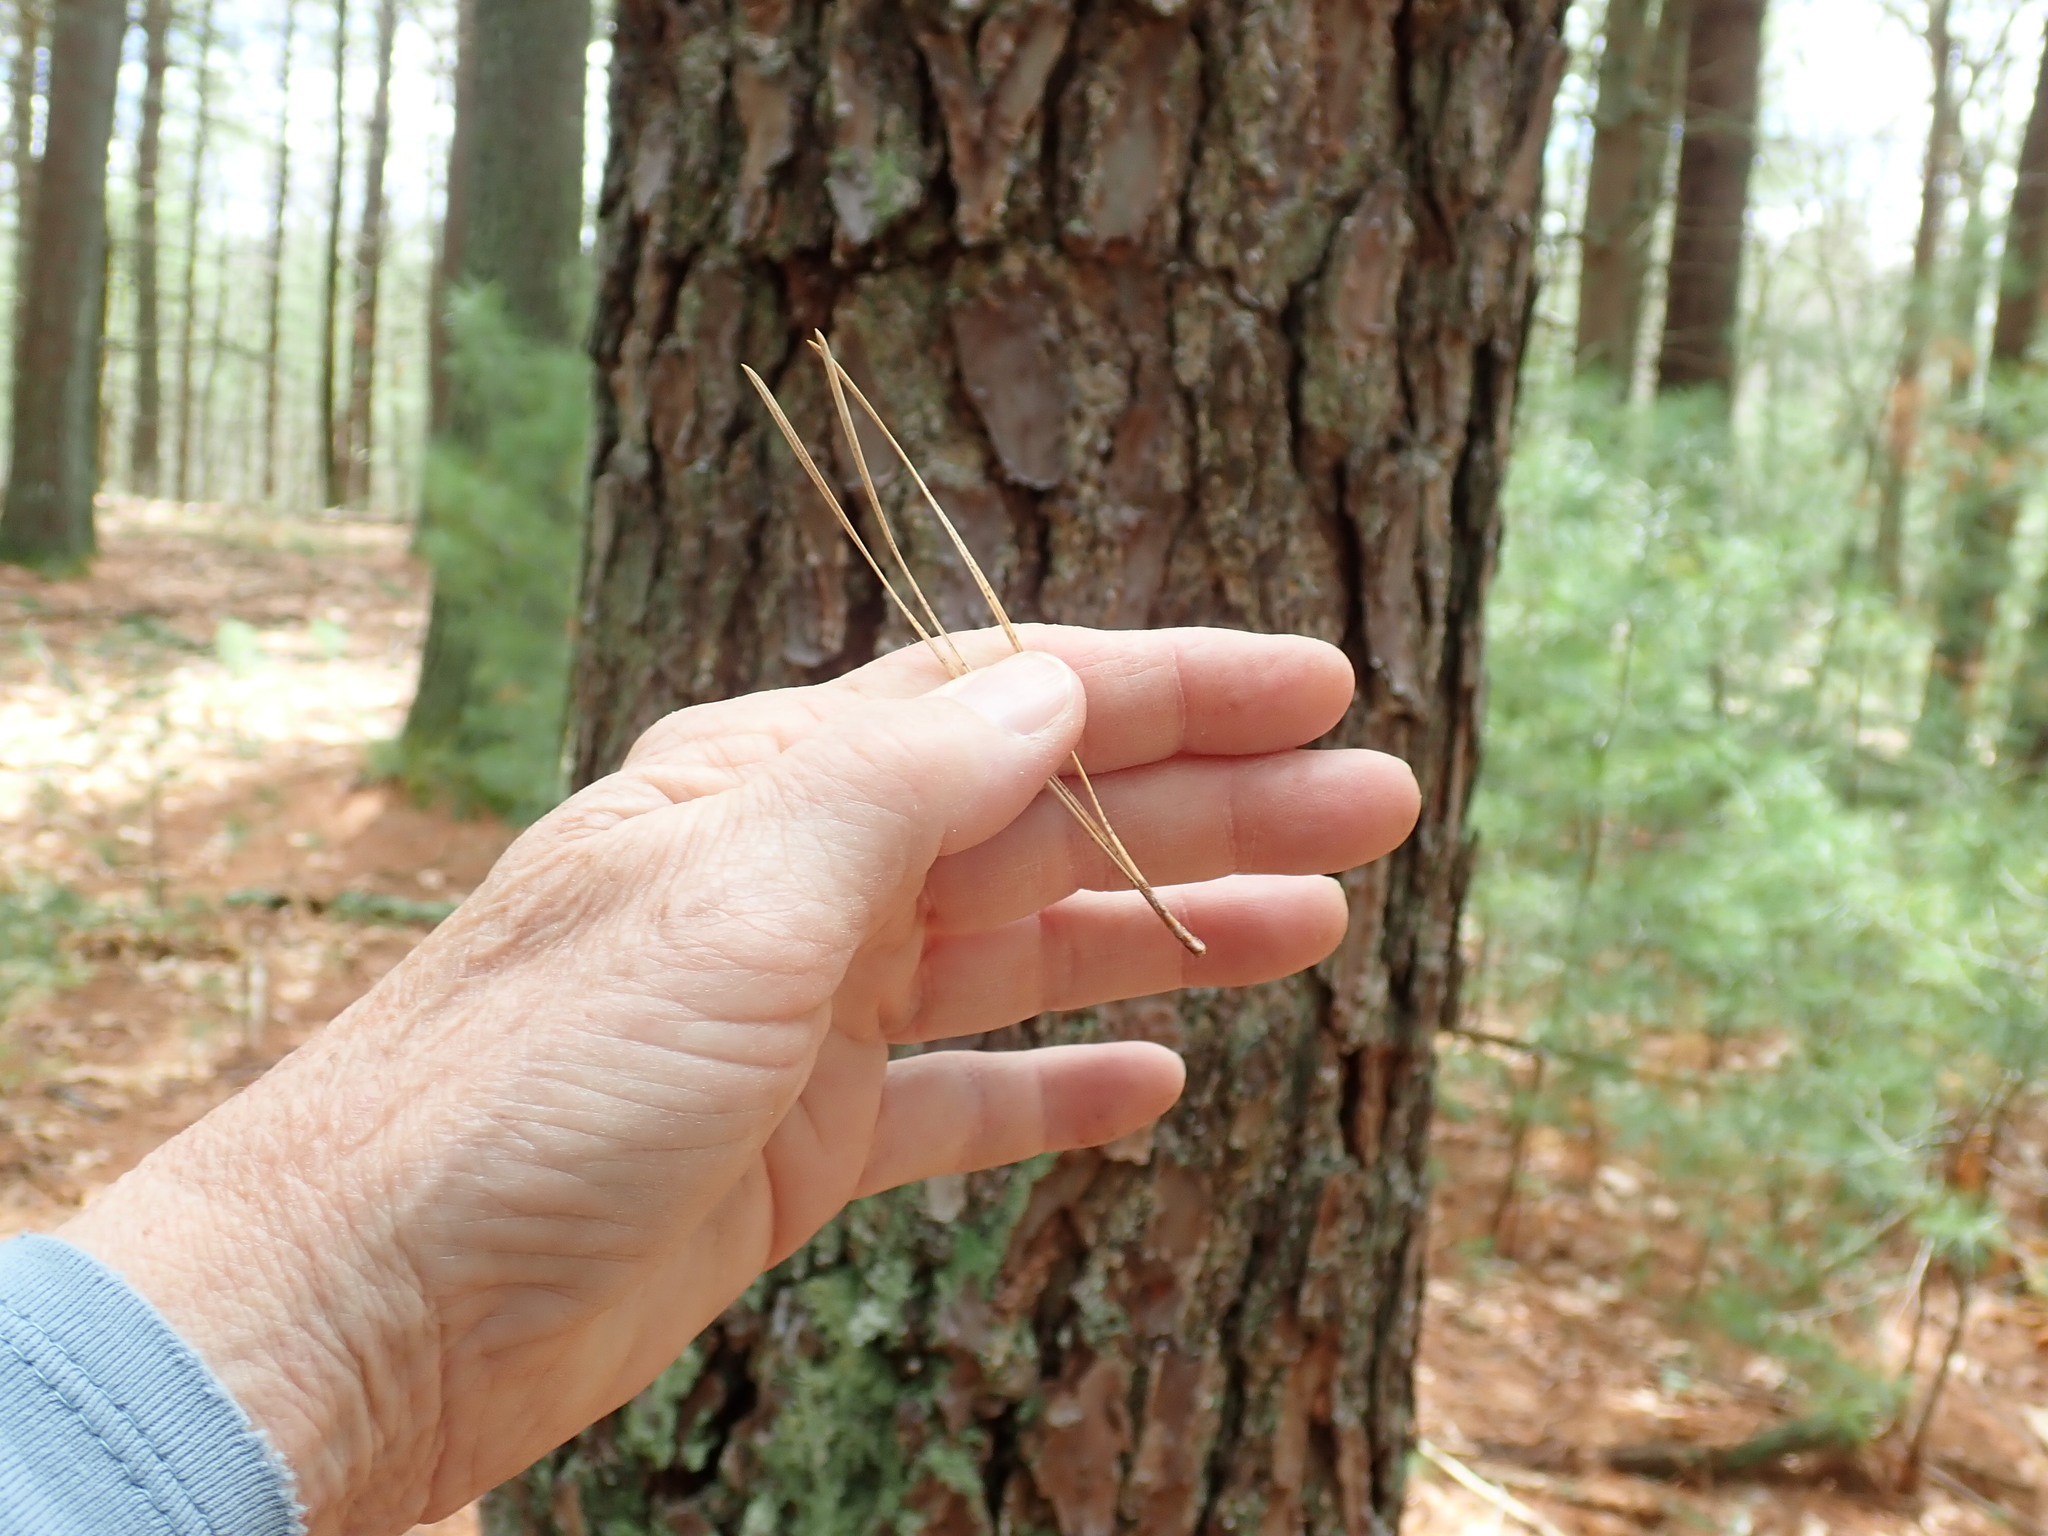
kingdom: Plantae
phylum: Tracheophyta
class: Pinopsida
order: Pinales
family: Pinaceae
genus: Pinus
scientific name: Pinus rigida
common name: Pitch pine
